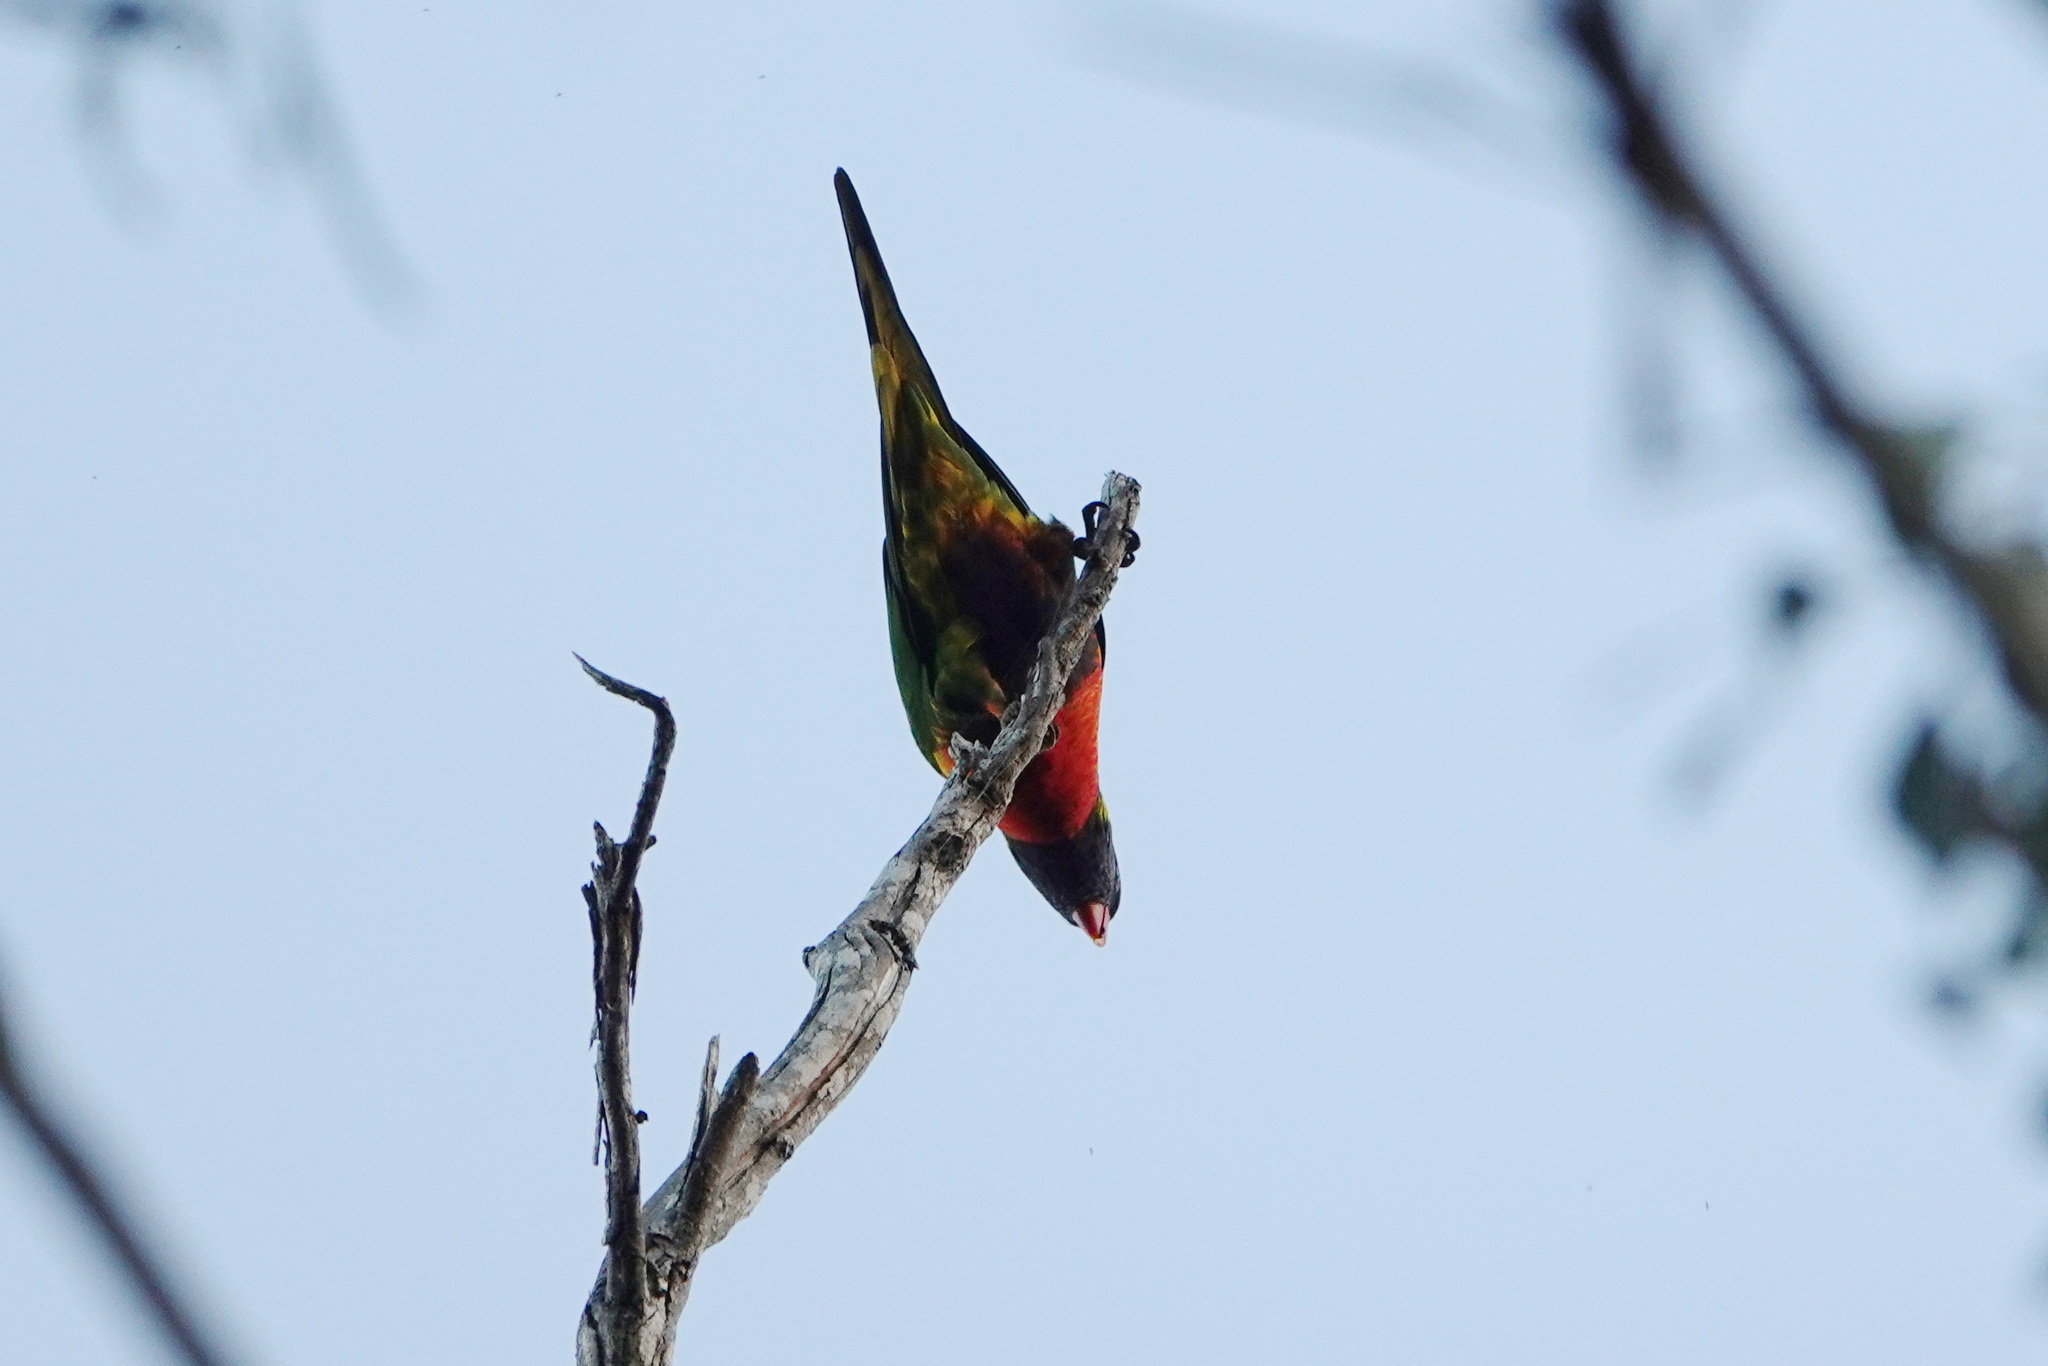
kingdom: Animalia
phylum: Chordata
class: Aves
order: Psittaciformes
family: Psittacidae
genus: Trichoglossus
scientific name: Trichoglossus haematodus
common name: Coconut lorikeet
